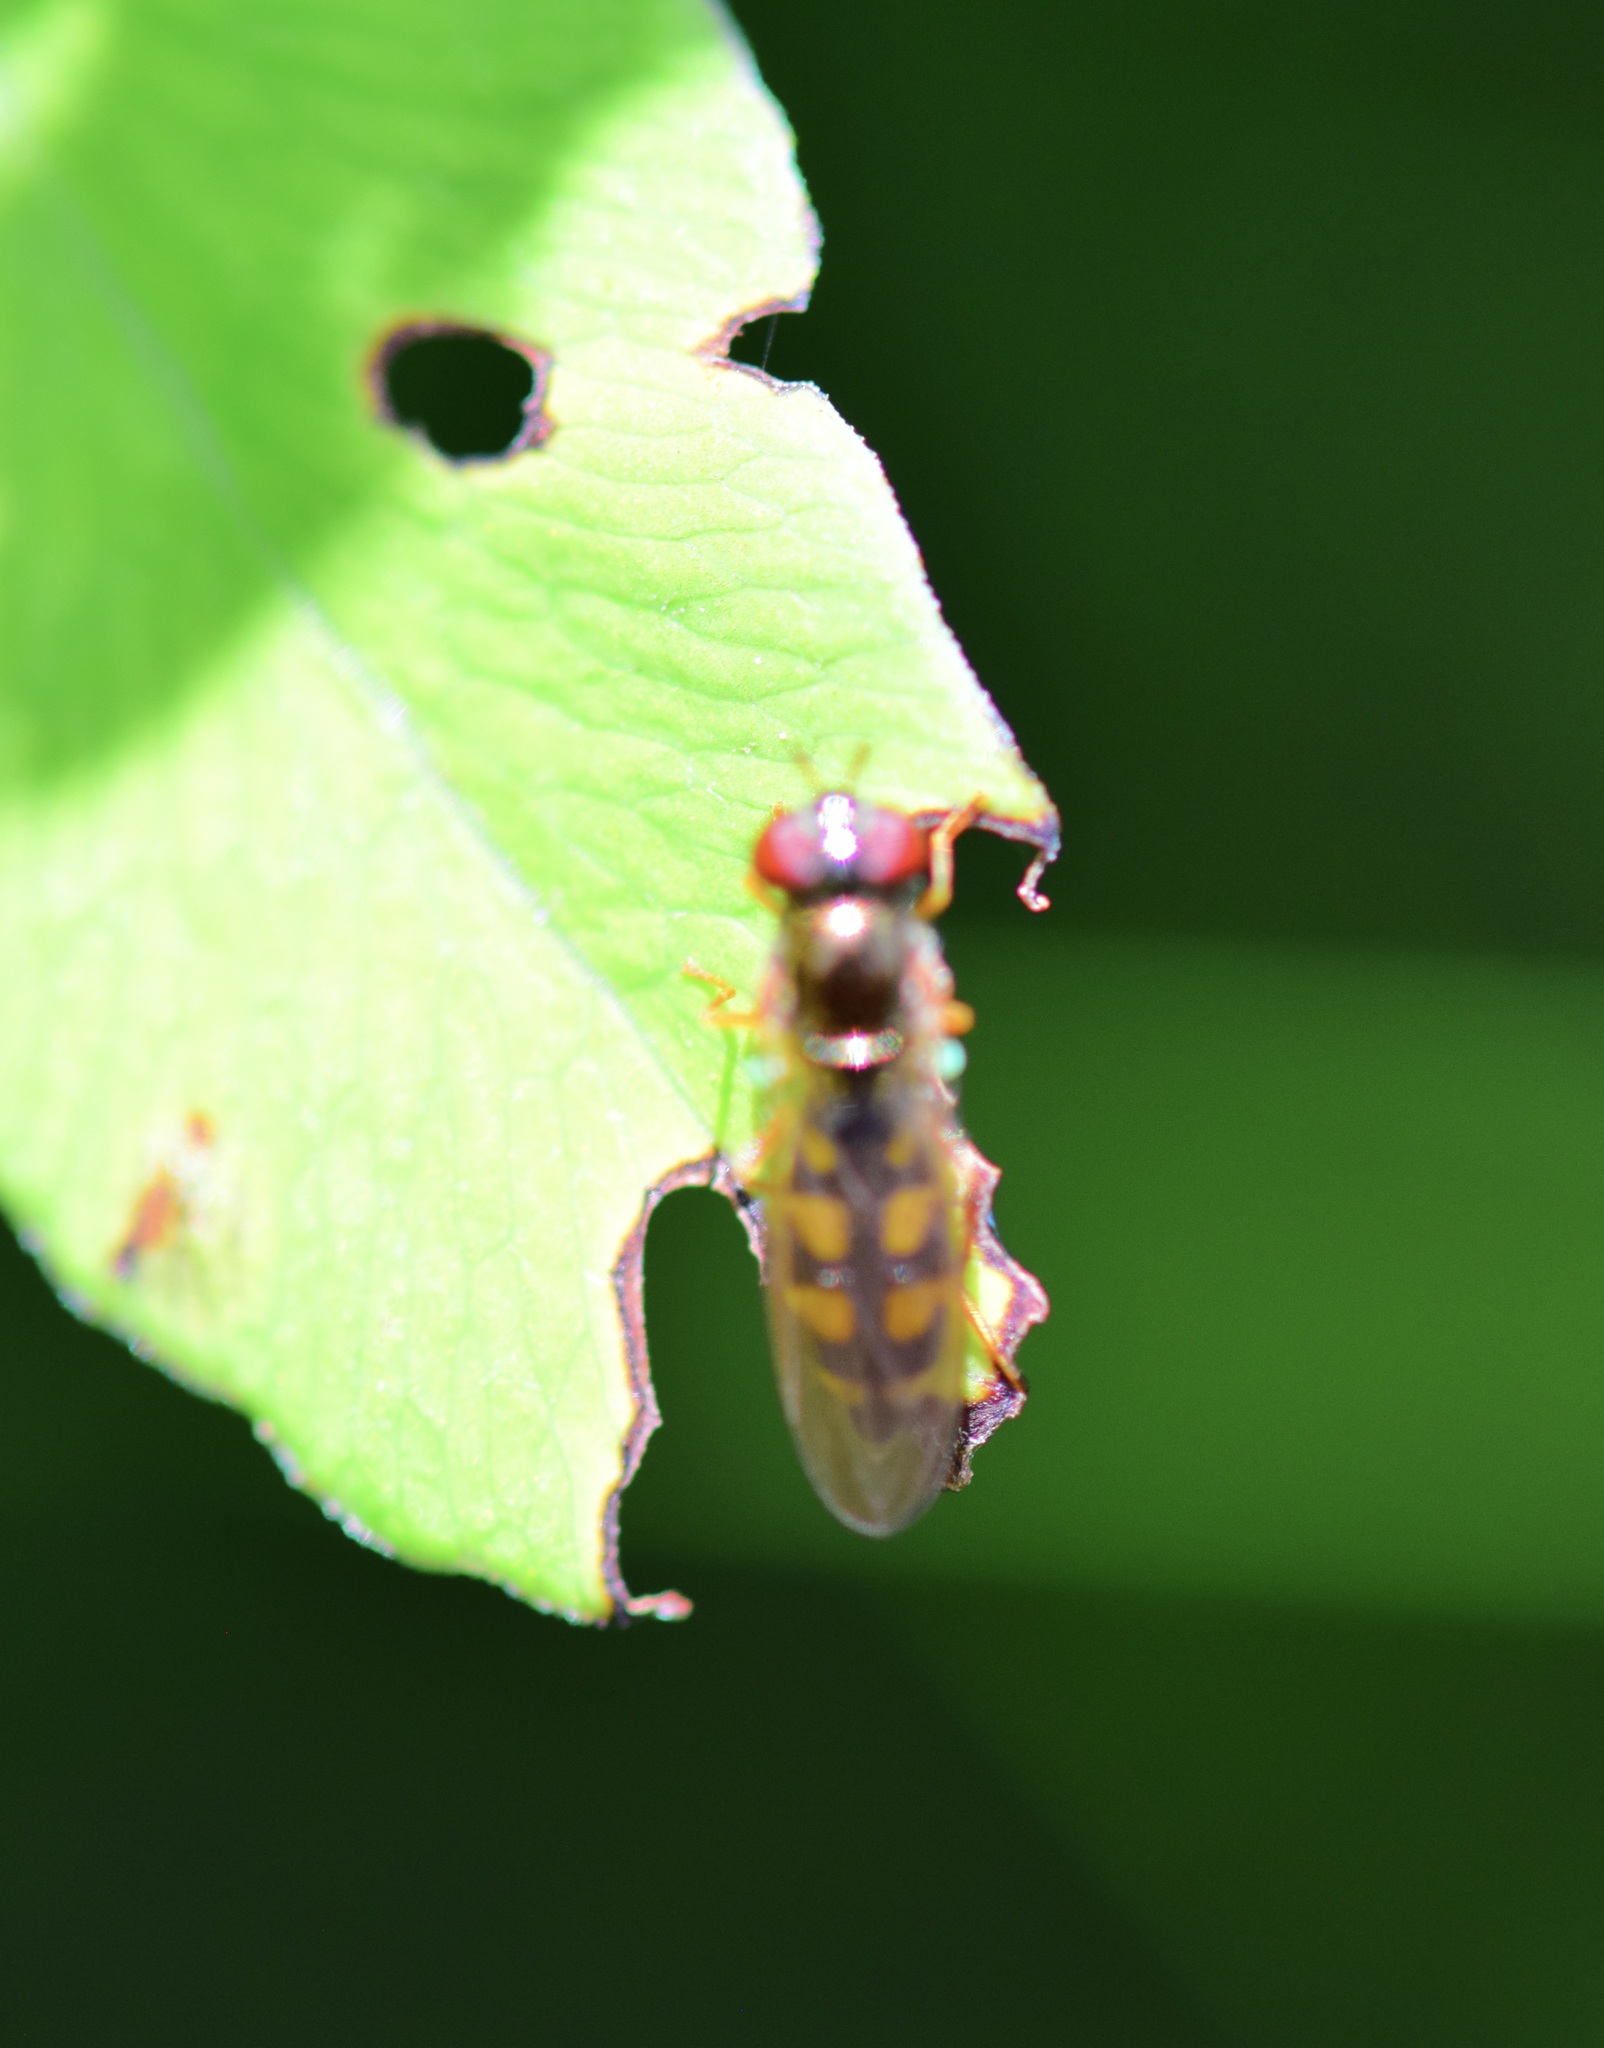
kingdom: Animalia
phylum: Arthropoda
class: Insecta
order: Diptera
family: Syrphidae
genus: Melanostoma
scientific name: Melanostoma mellina
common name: Hover fly
